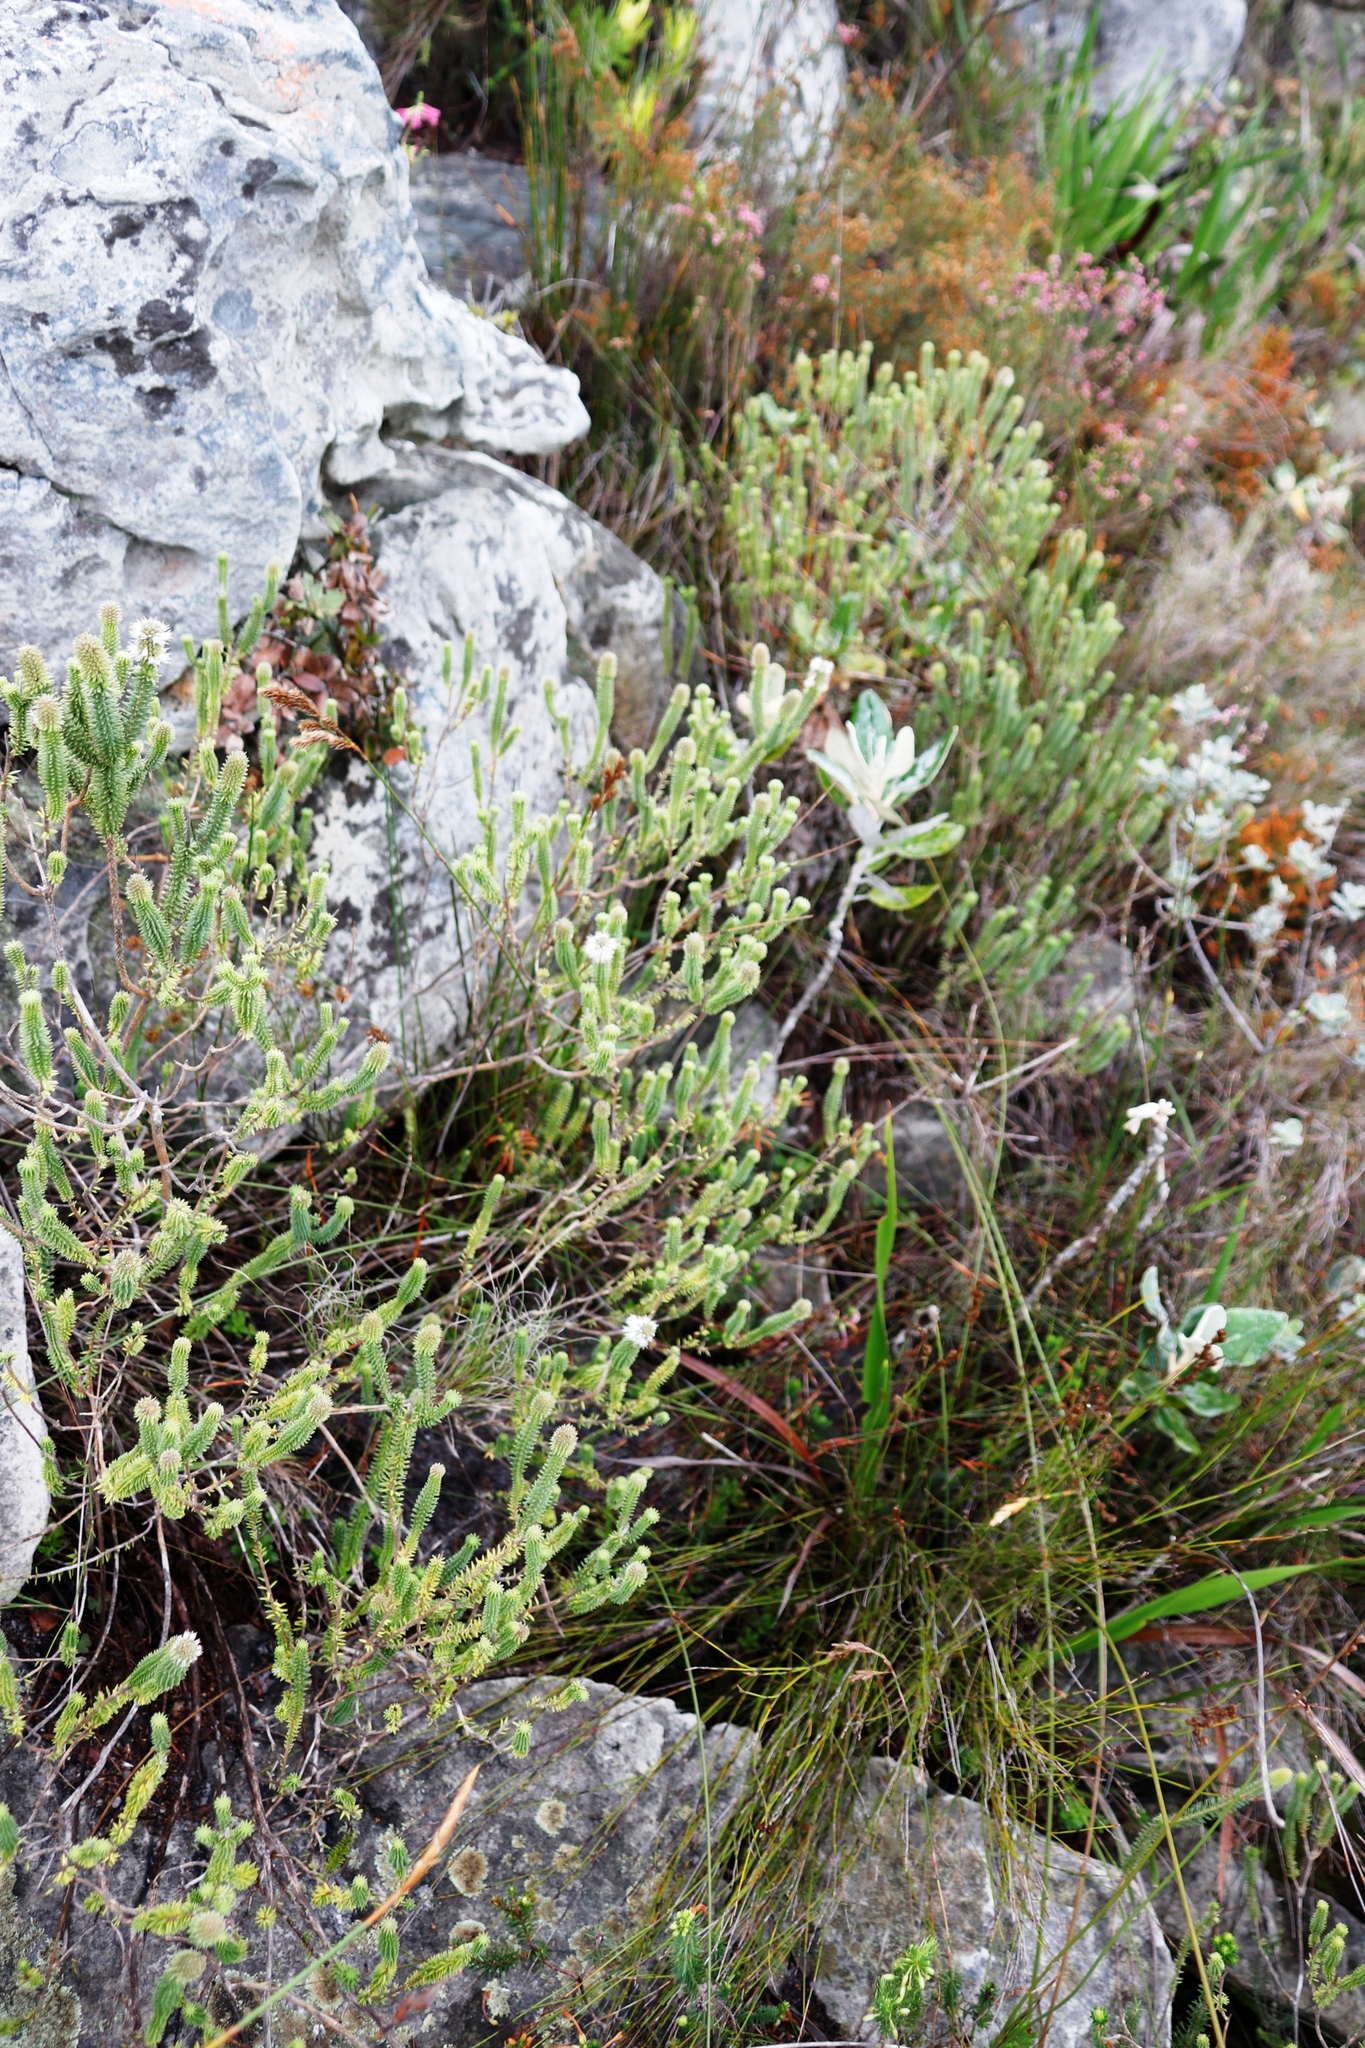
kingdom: Plantae
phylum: Tracheophyta
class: Magnoliopsida
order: Lamiales
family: Stilbaceae
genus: Stilbe
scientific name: Stilbe vestita
